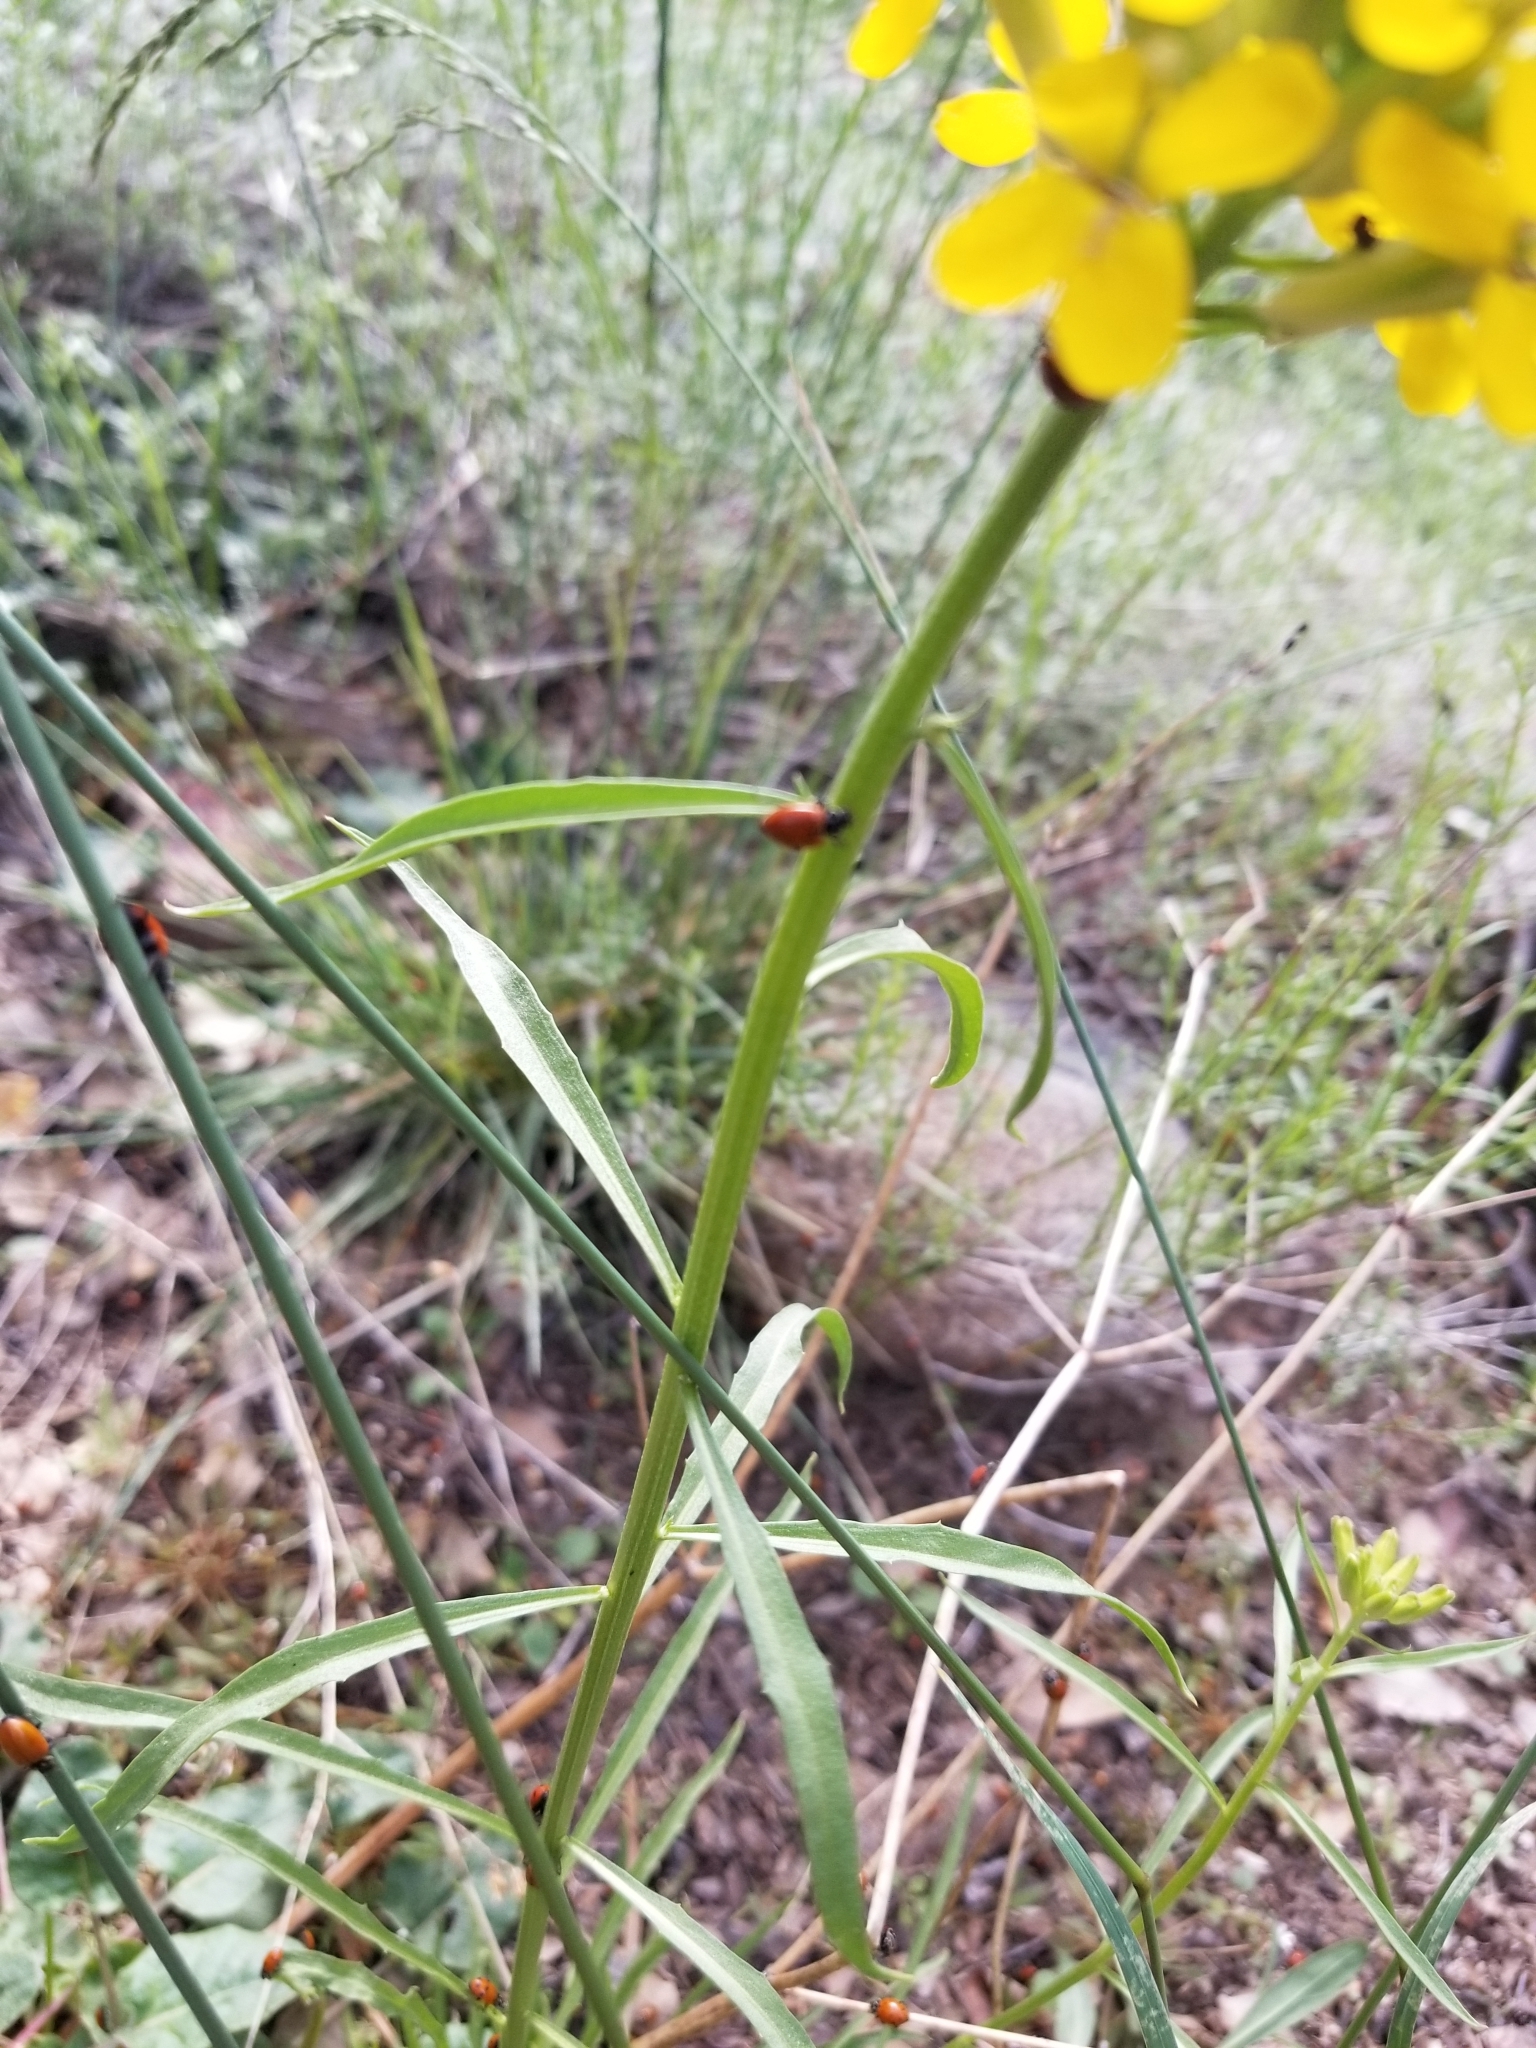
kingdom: Plantae
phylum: Tracheophyta
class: Magnoliopsida
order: Brassicales
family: Brassicaceae
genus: Erysimum
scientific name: Erysimum capitatum
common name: Western wallflower
